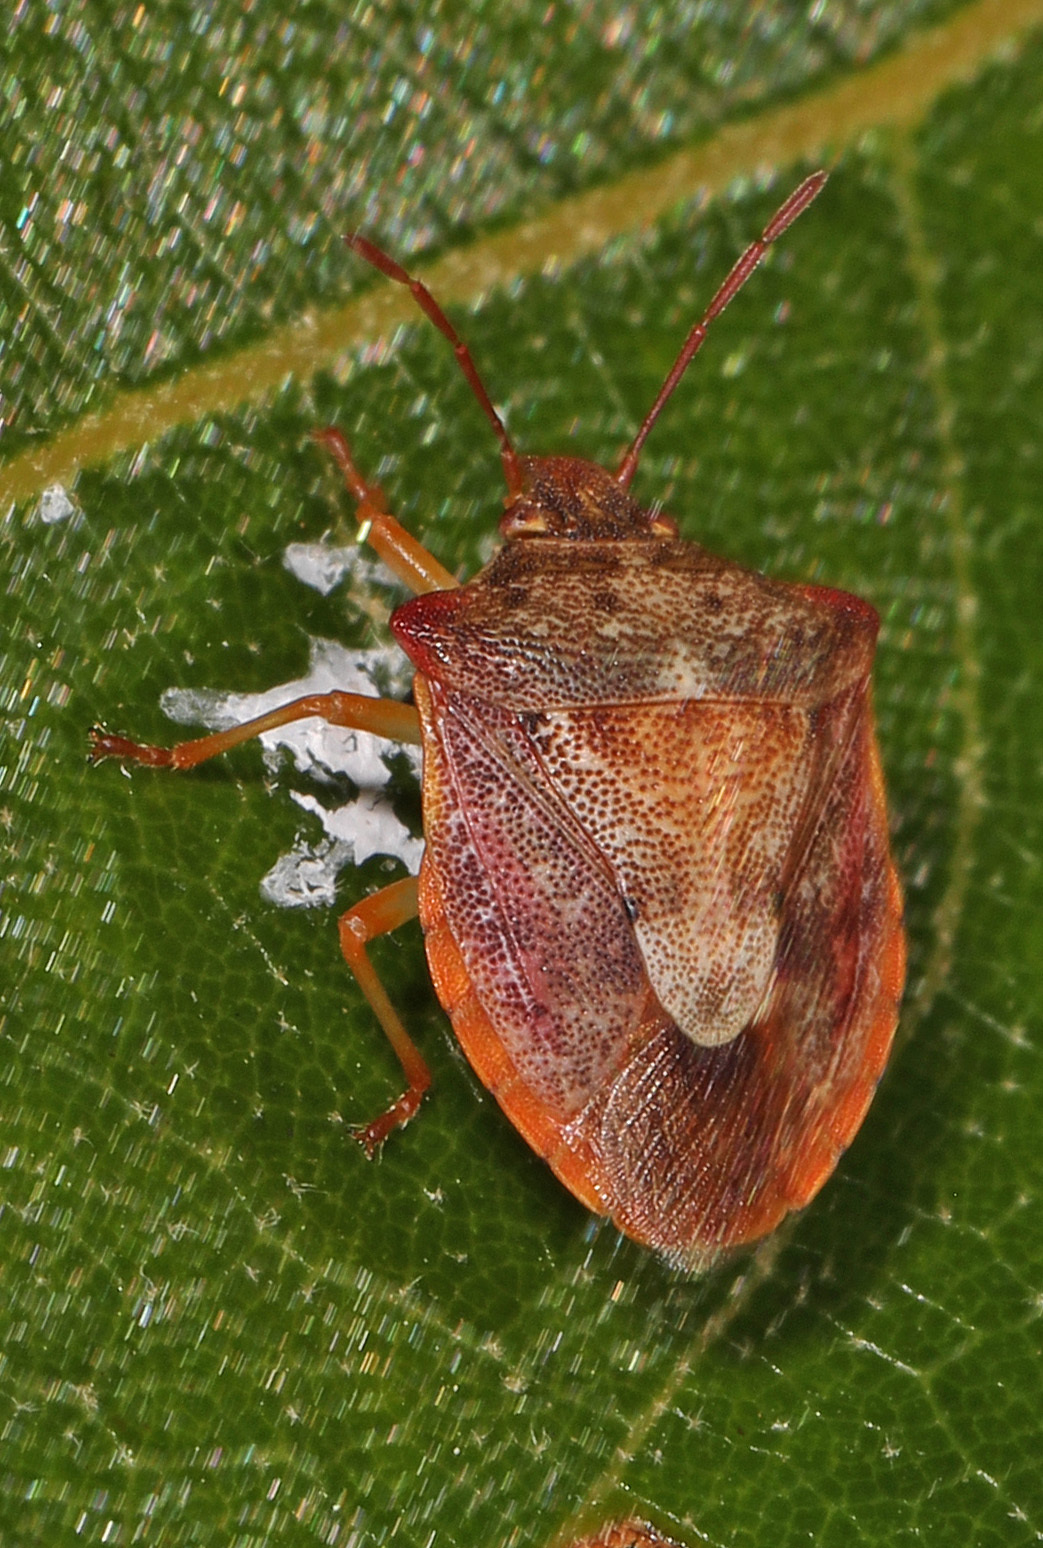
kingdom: Animalia
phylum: Arthropoda
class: Insecta
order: Hemiptera
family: Pentatomidae
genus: Dendrocoris
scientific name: Dendrocoris humeralis
